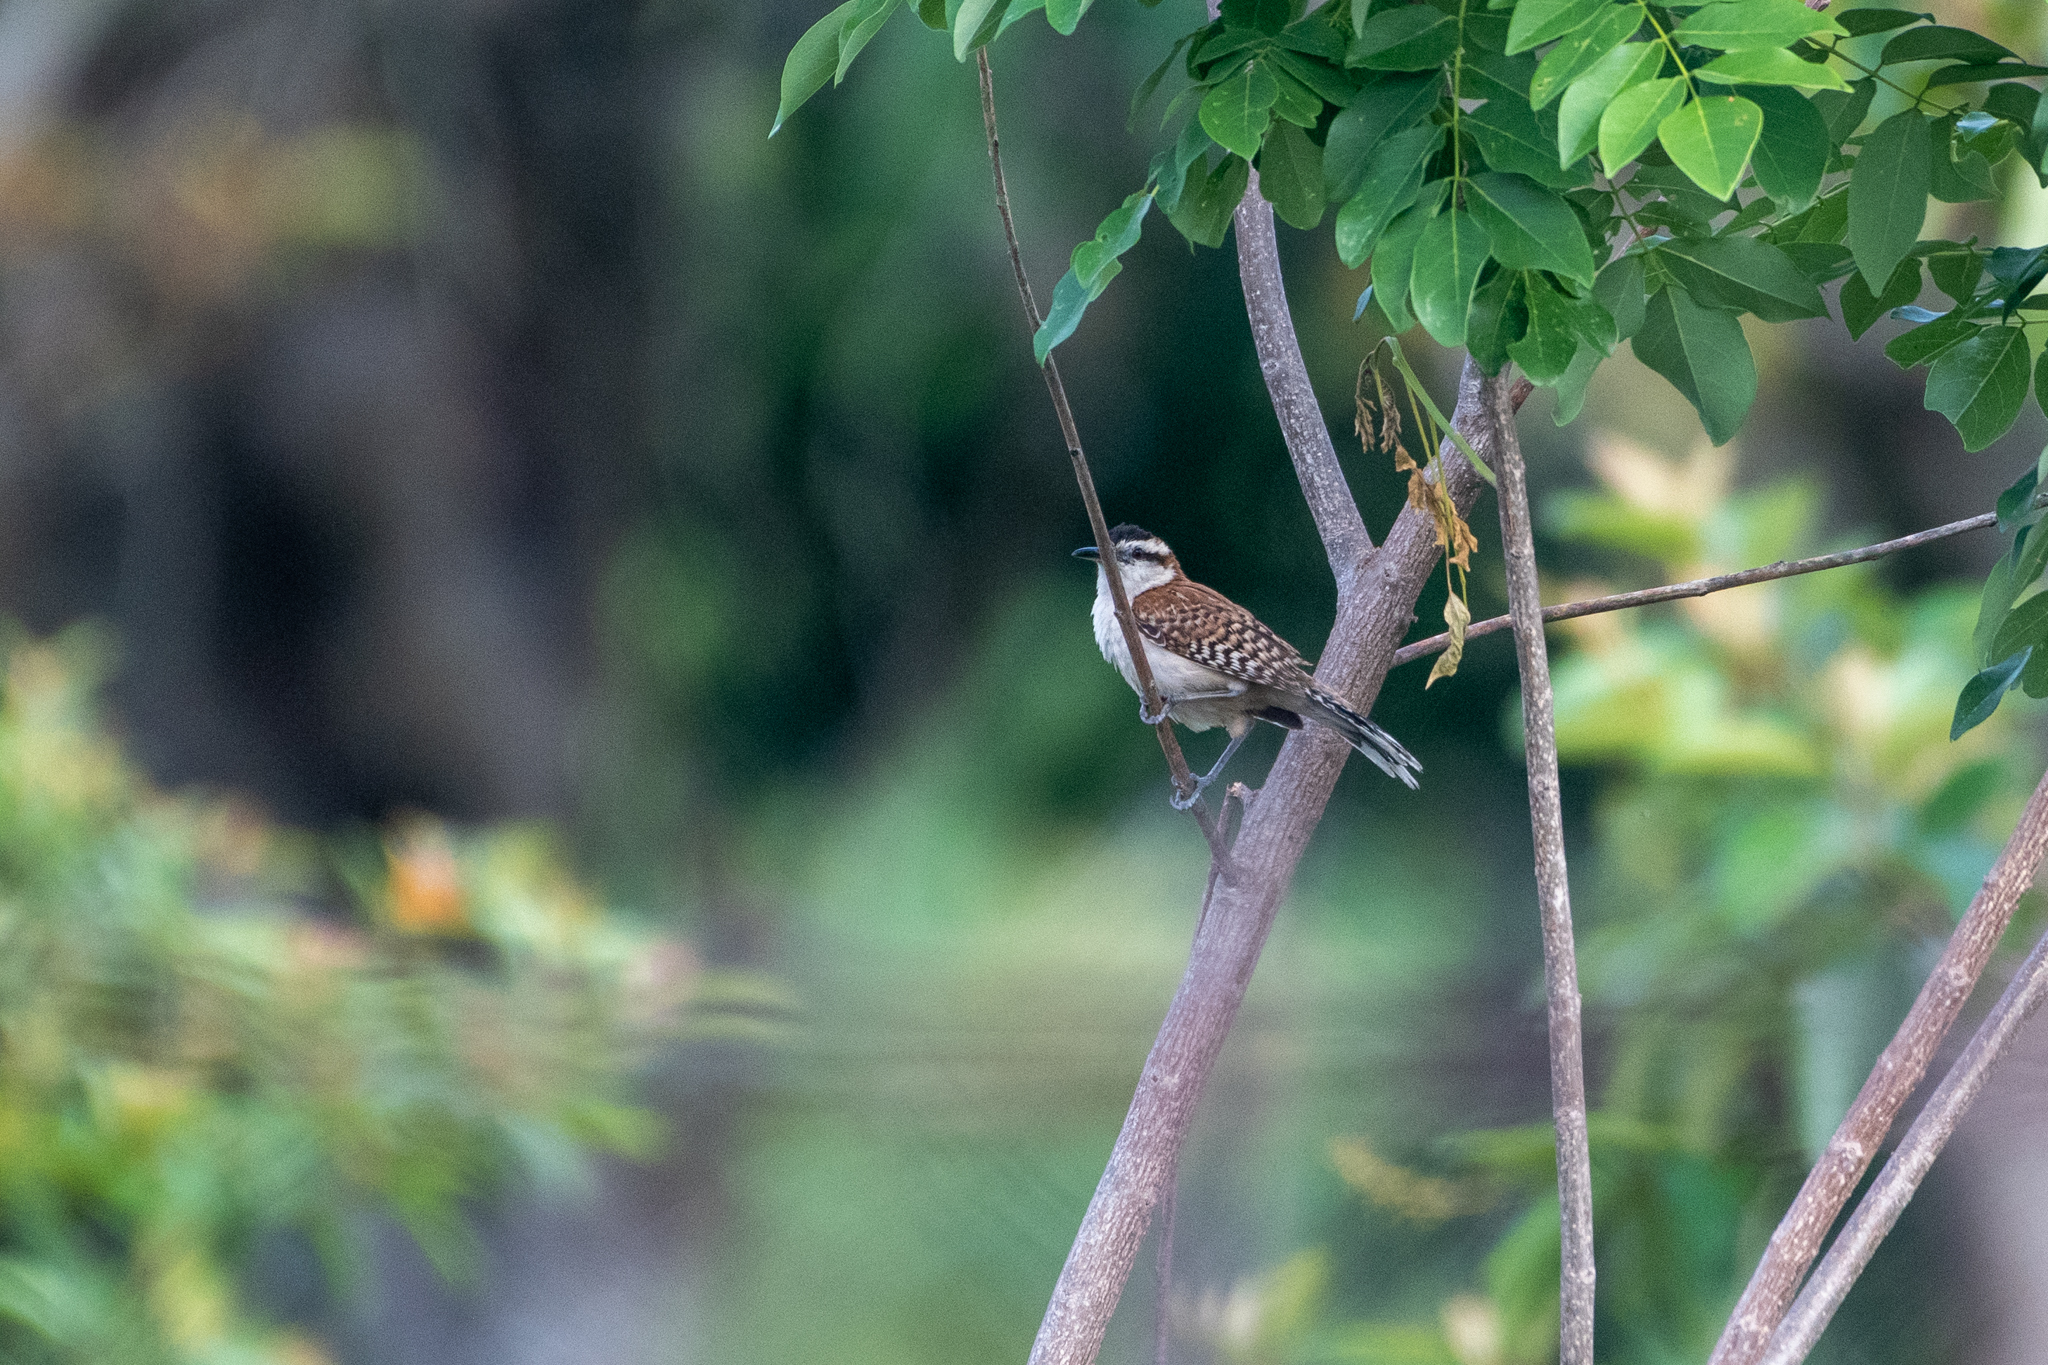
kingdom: Animalia
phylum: Chordata
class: Aves
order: Passeriformes
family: Troglodytidae
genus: Campylorhynchus
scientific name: Campylorhynchus rufinucha
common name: Rufous-naped wren
